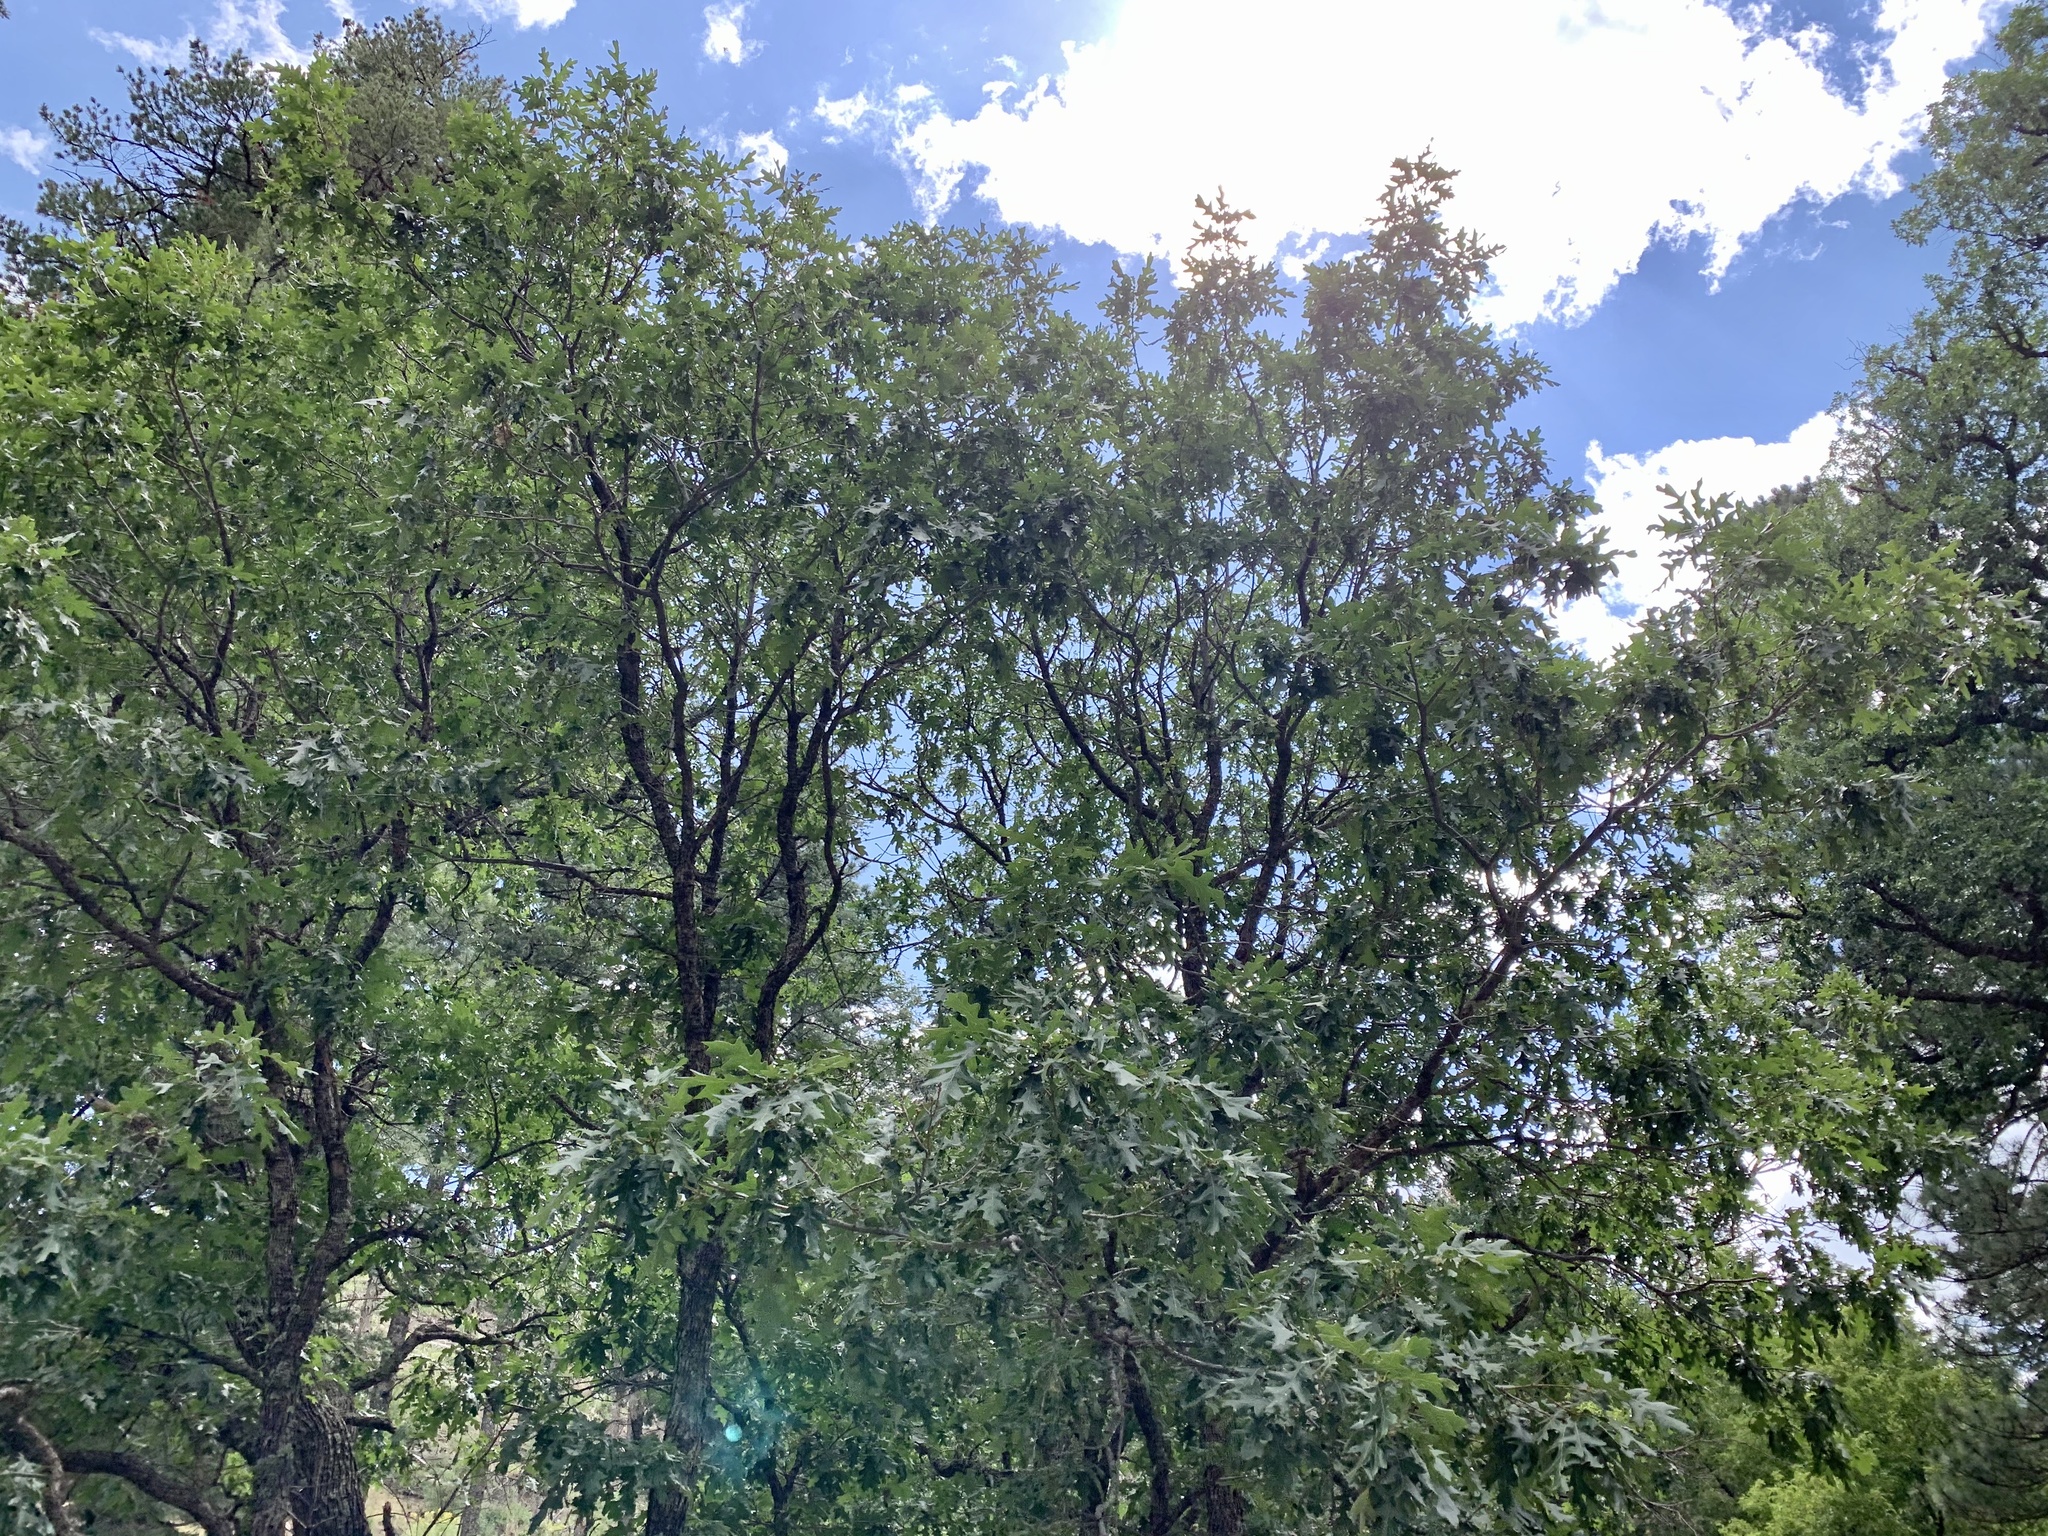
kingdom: Plantae
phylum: Tracheophyta
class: Magnoliopsida
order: Fagales
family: Fagaceae
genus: Quercus
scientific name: Quercus gambelii
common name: Gambel oak
